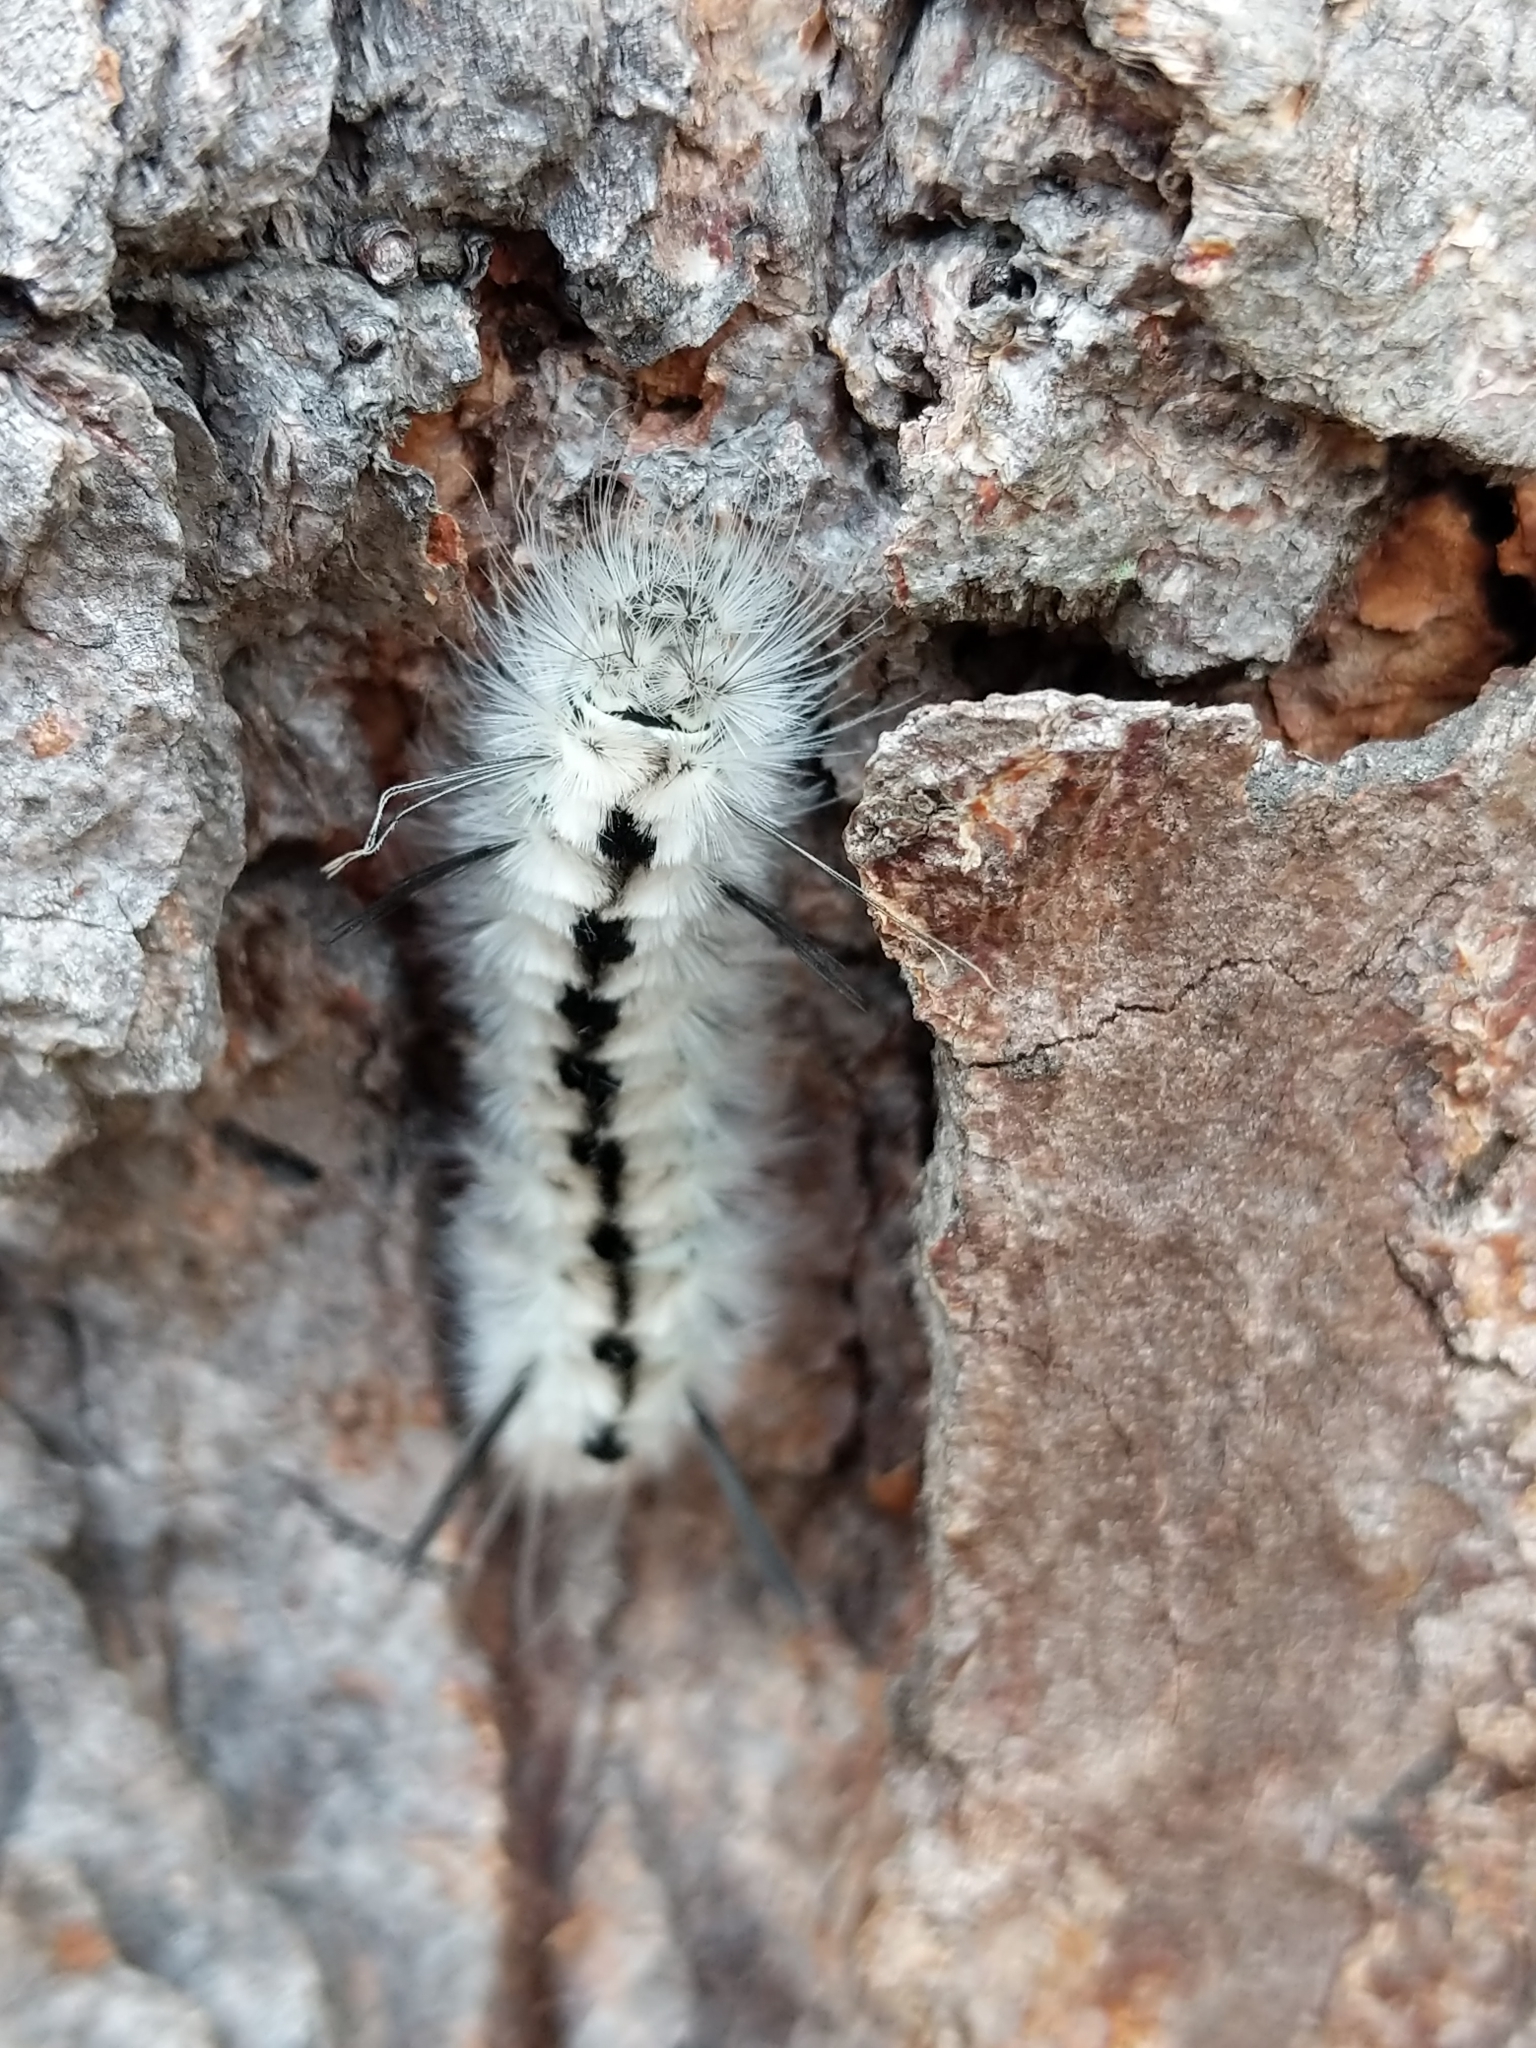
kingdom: Animalia
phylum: Arthropoda
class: Insecta
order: Lepidoptera
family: Erebidae
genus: Lophocampa
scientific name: Lophocampa caryae
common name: Hickory tussock moth
